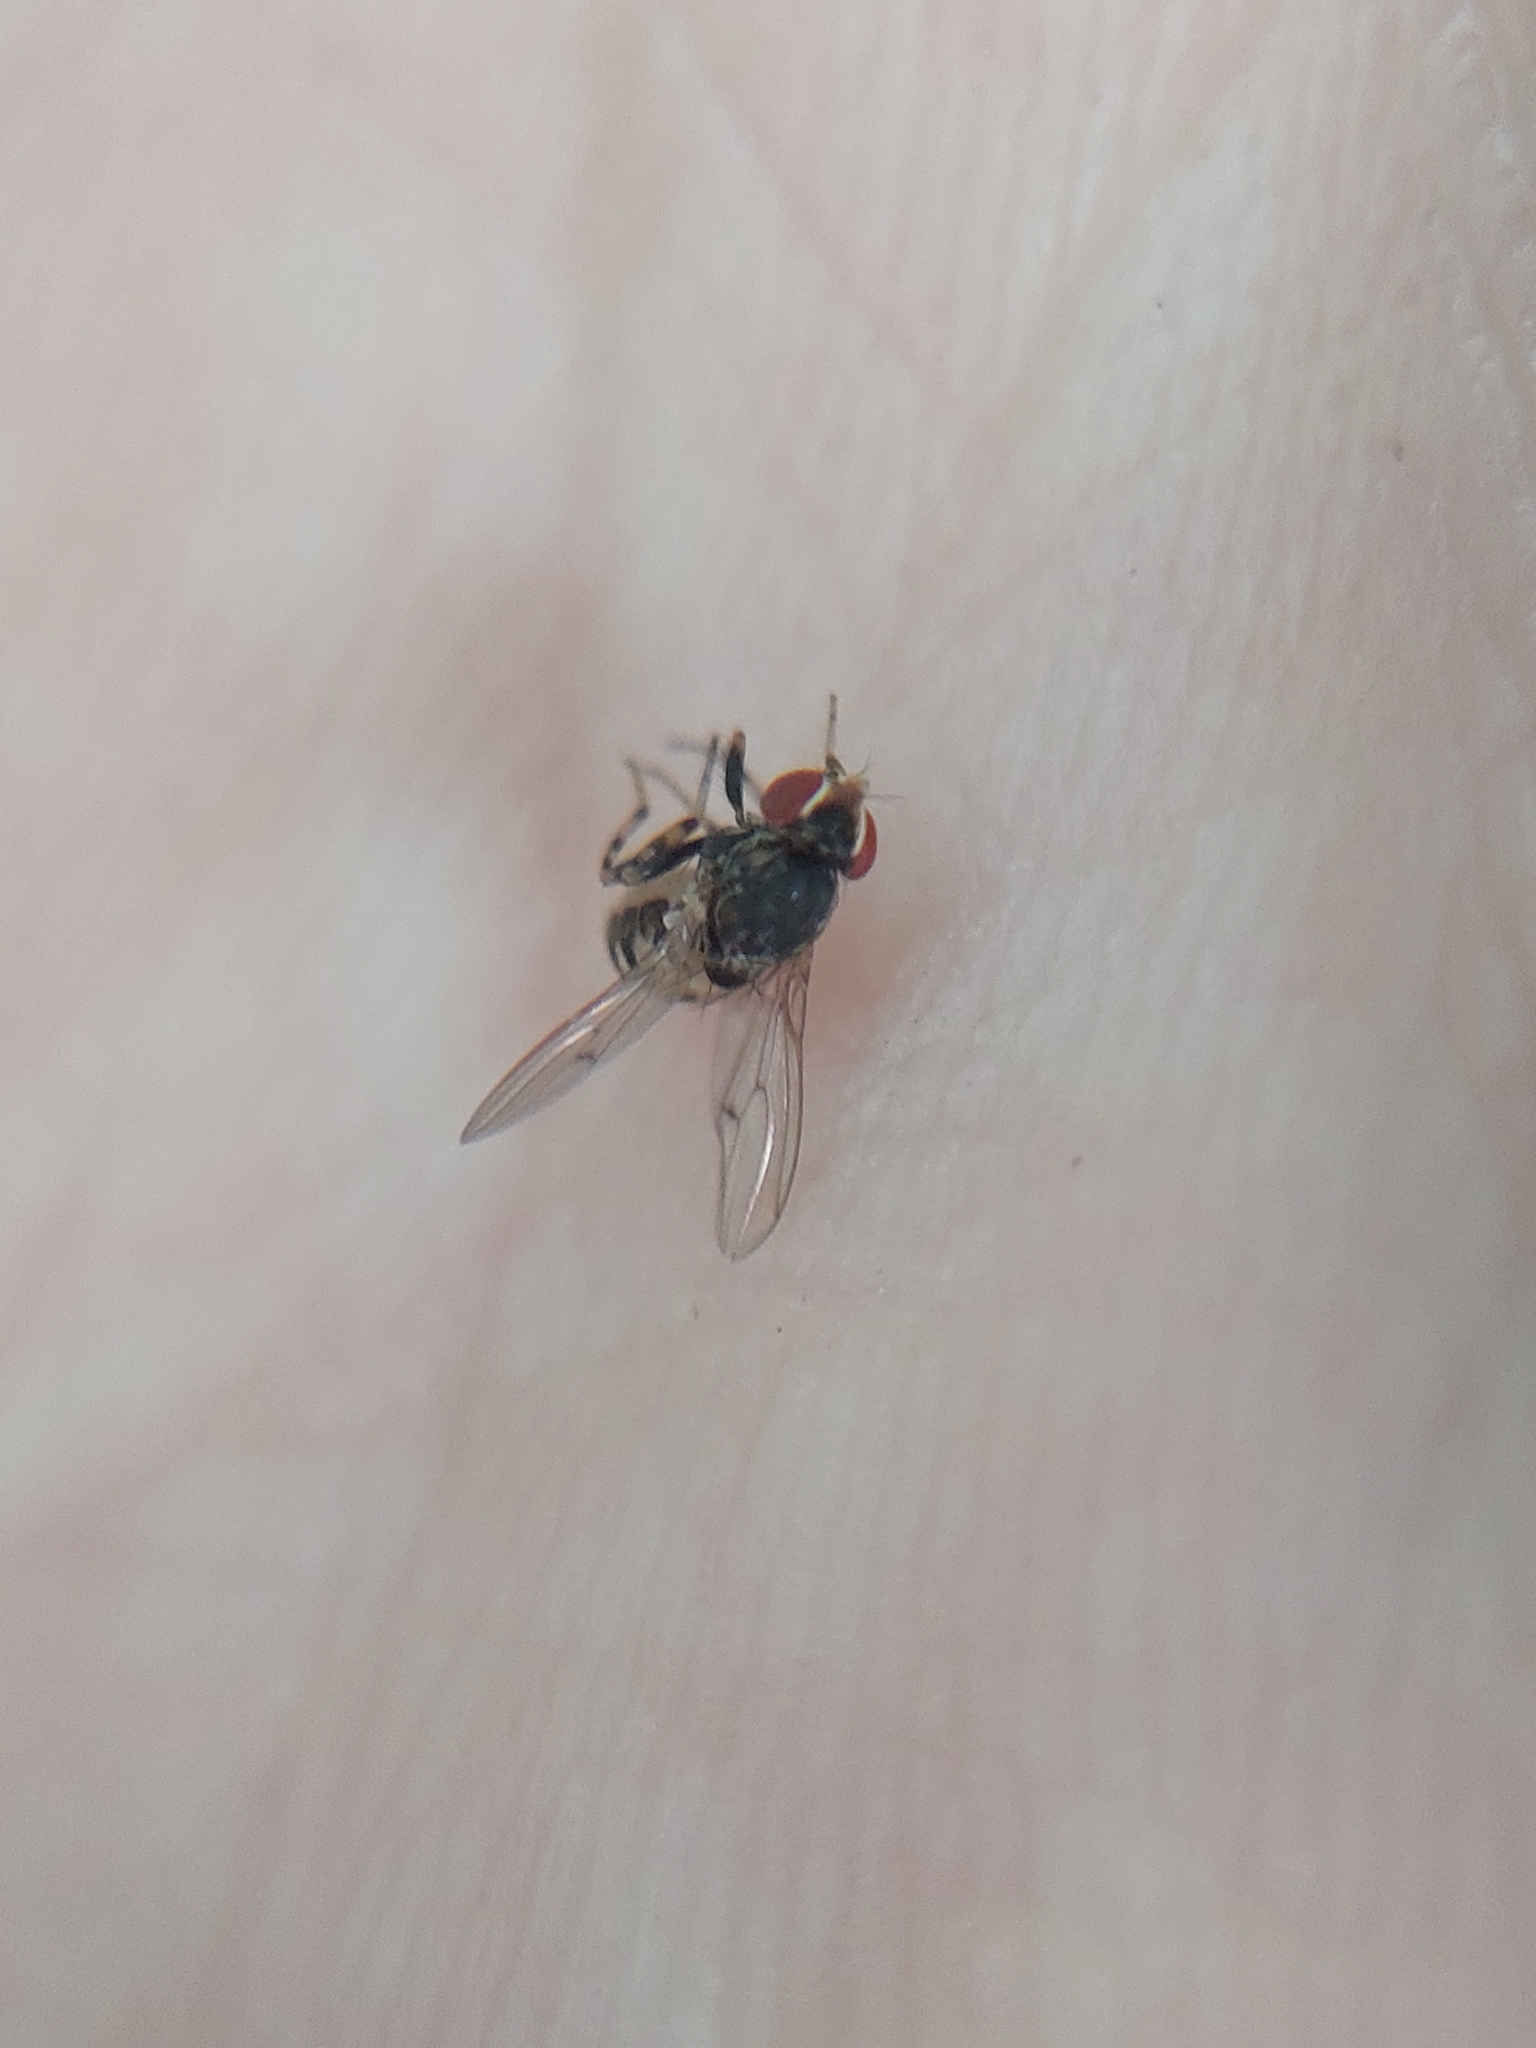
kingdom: Animalia
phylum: Arthropoda
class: Insecta
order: Diptera
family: Drosophilidae
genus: Phortica
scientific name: Phortica variegata
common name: Variegated fruit-fly
